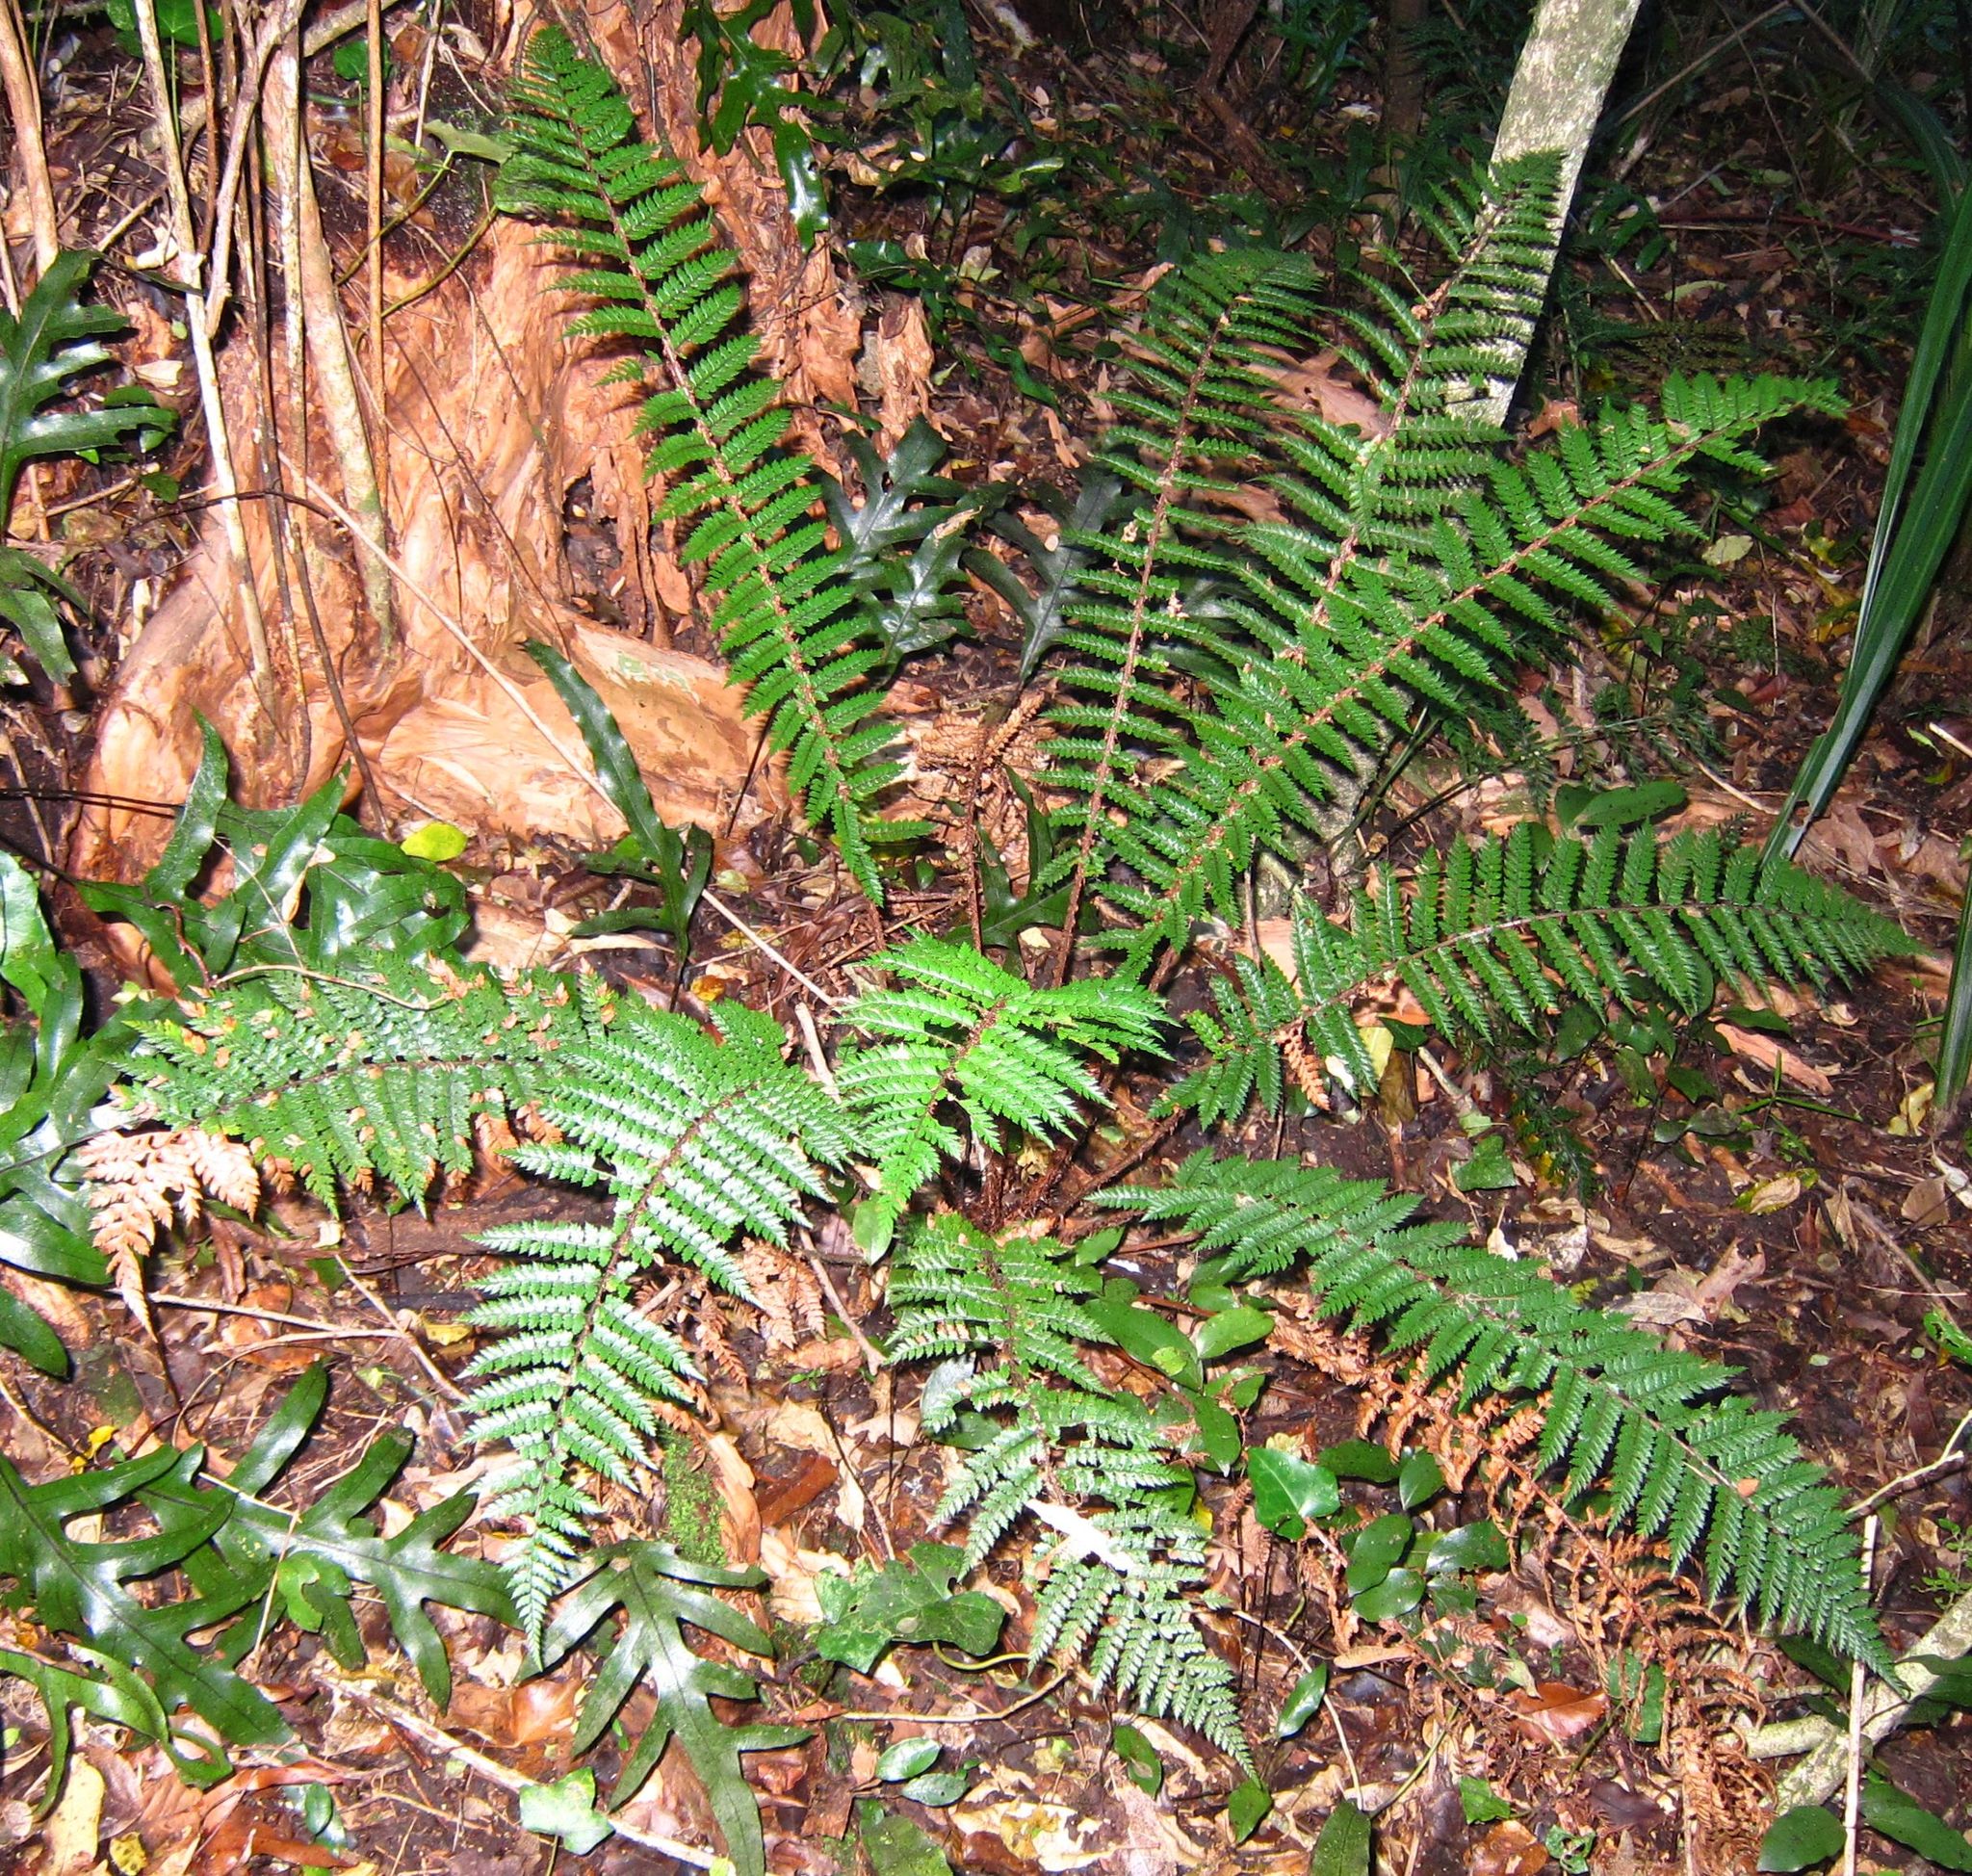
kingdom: Plantae
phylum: Tracheophyta
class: Polypodiopsida
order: Polypodiales
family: Dryopteridaceae
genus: Polystichum
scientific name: Polystichum vestitum
